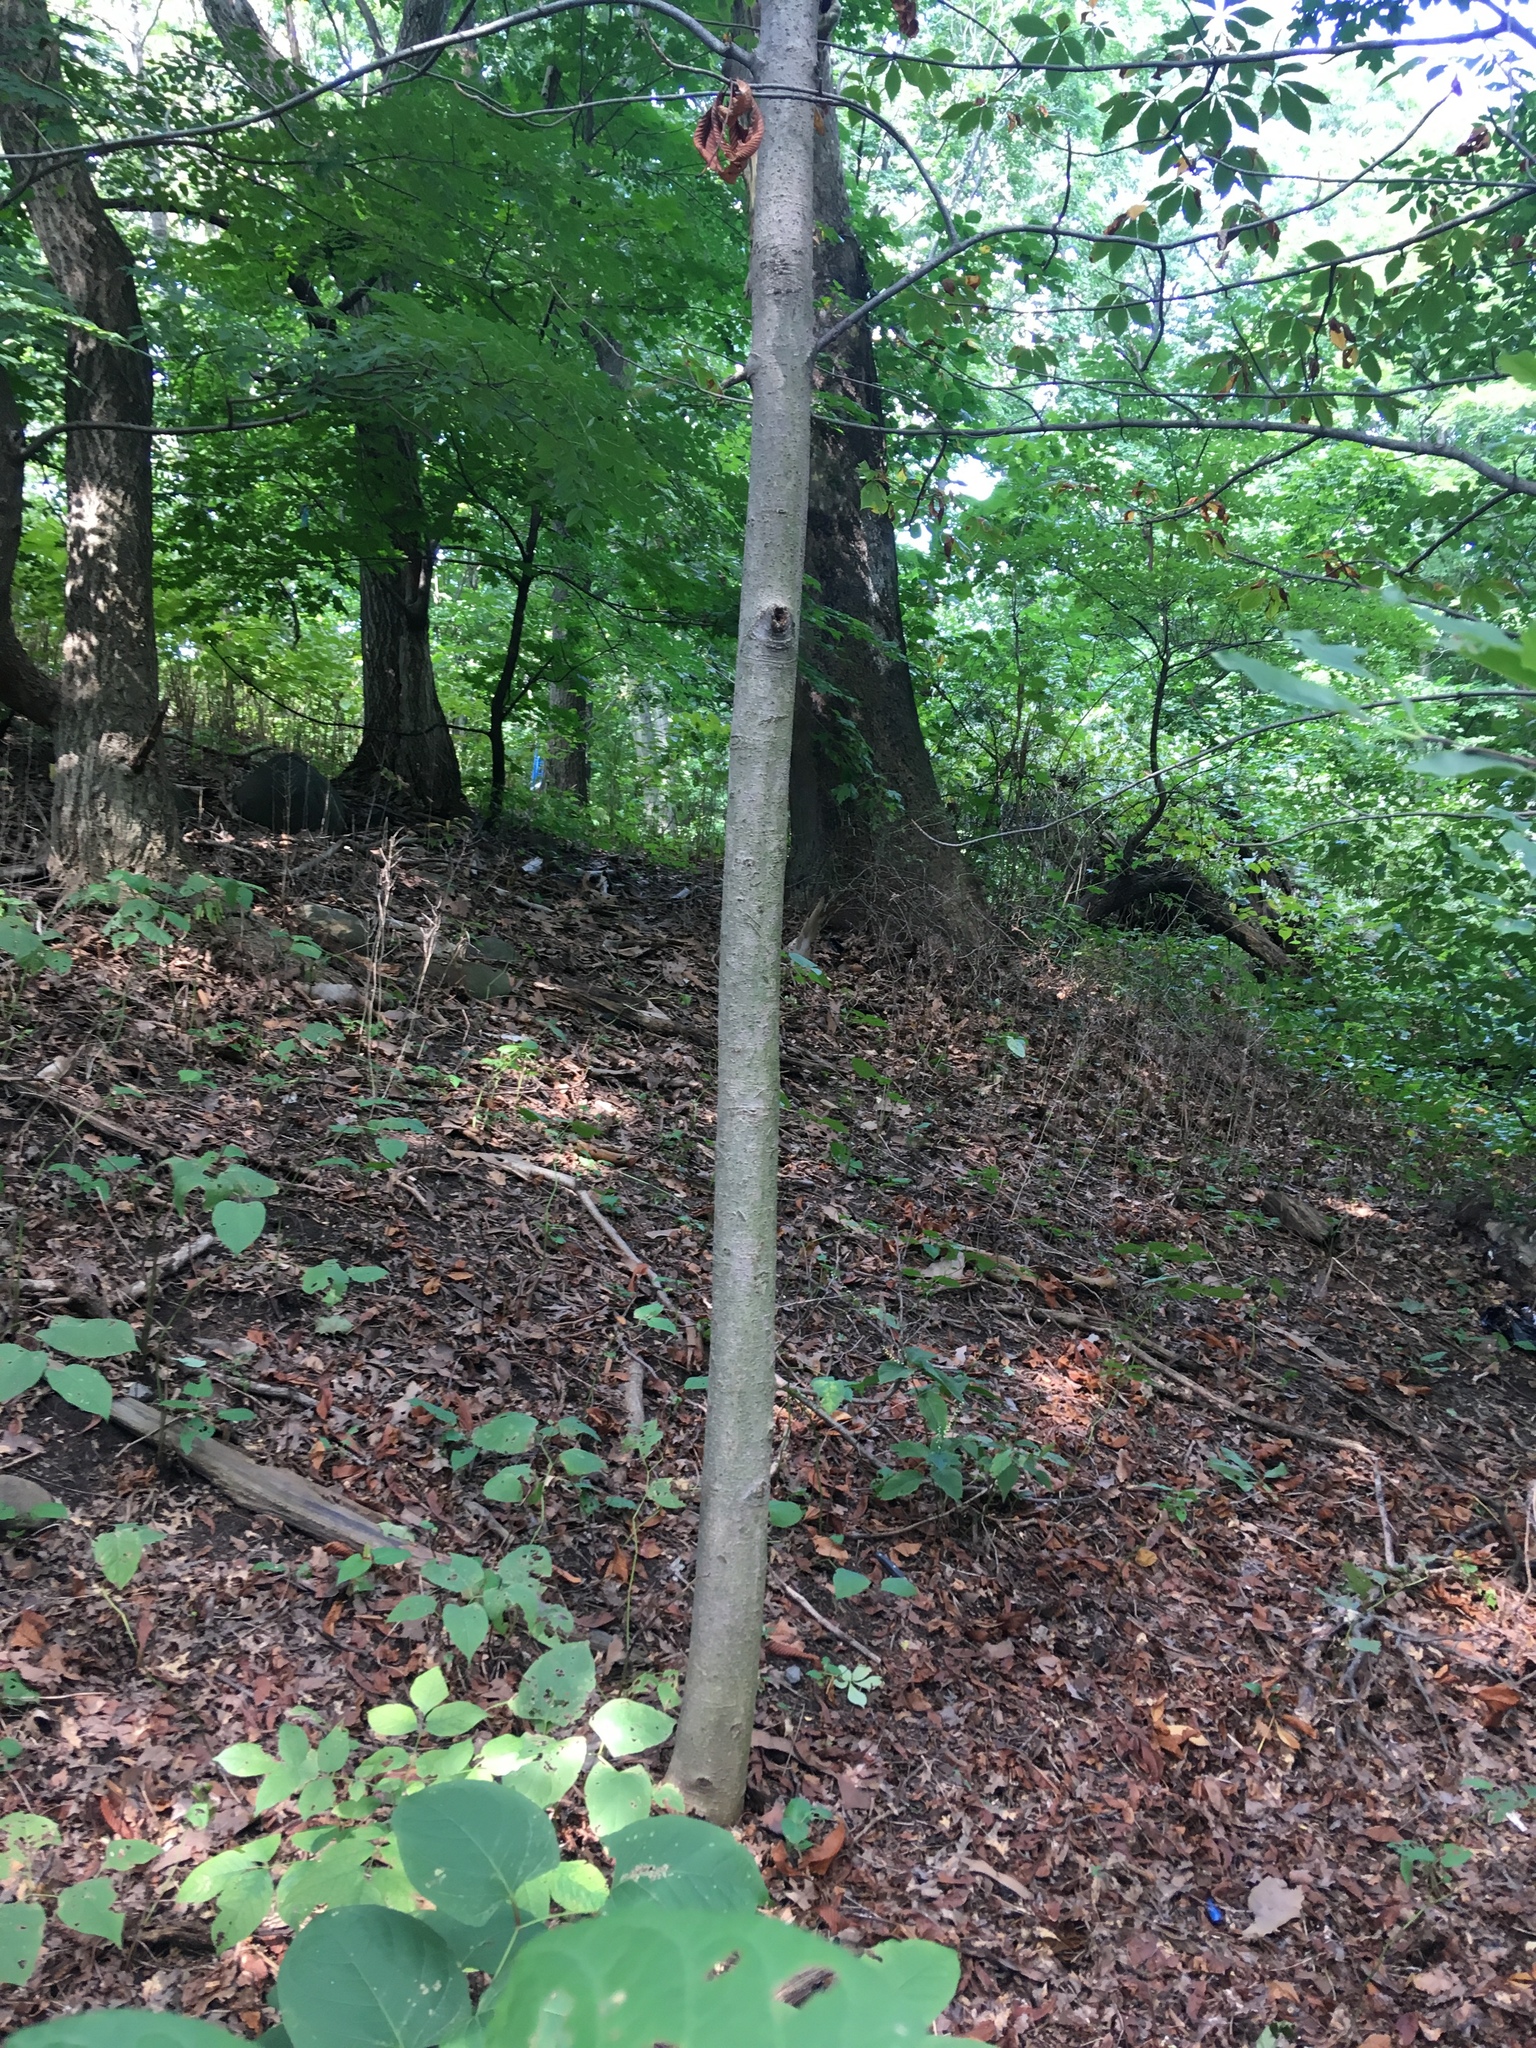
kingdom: Plantae
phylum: Tracheophyta
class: Magnoliopsida
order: Sapindales
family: Sapindaceae
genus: Aesculus
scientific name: Aesculus flava
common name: Yellow buckeye
